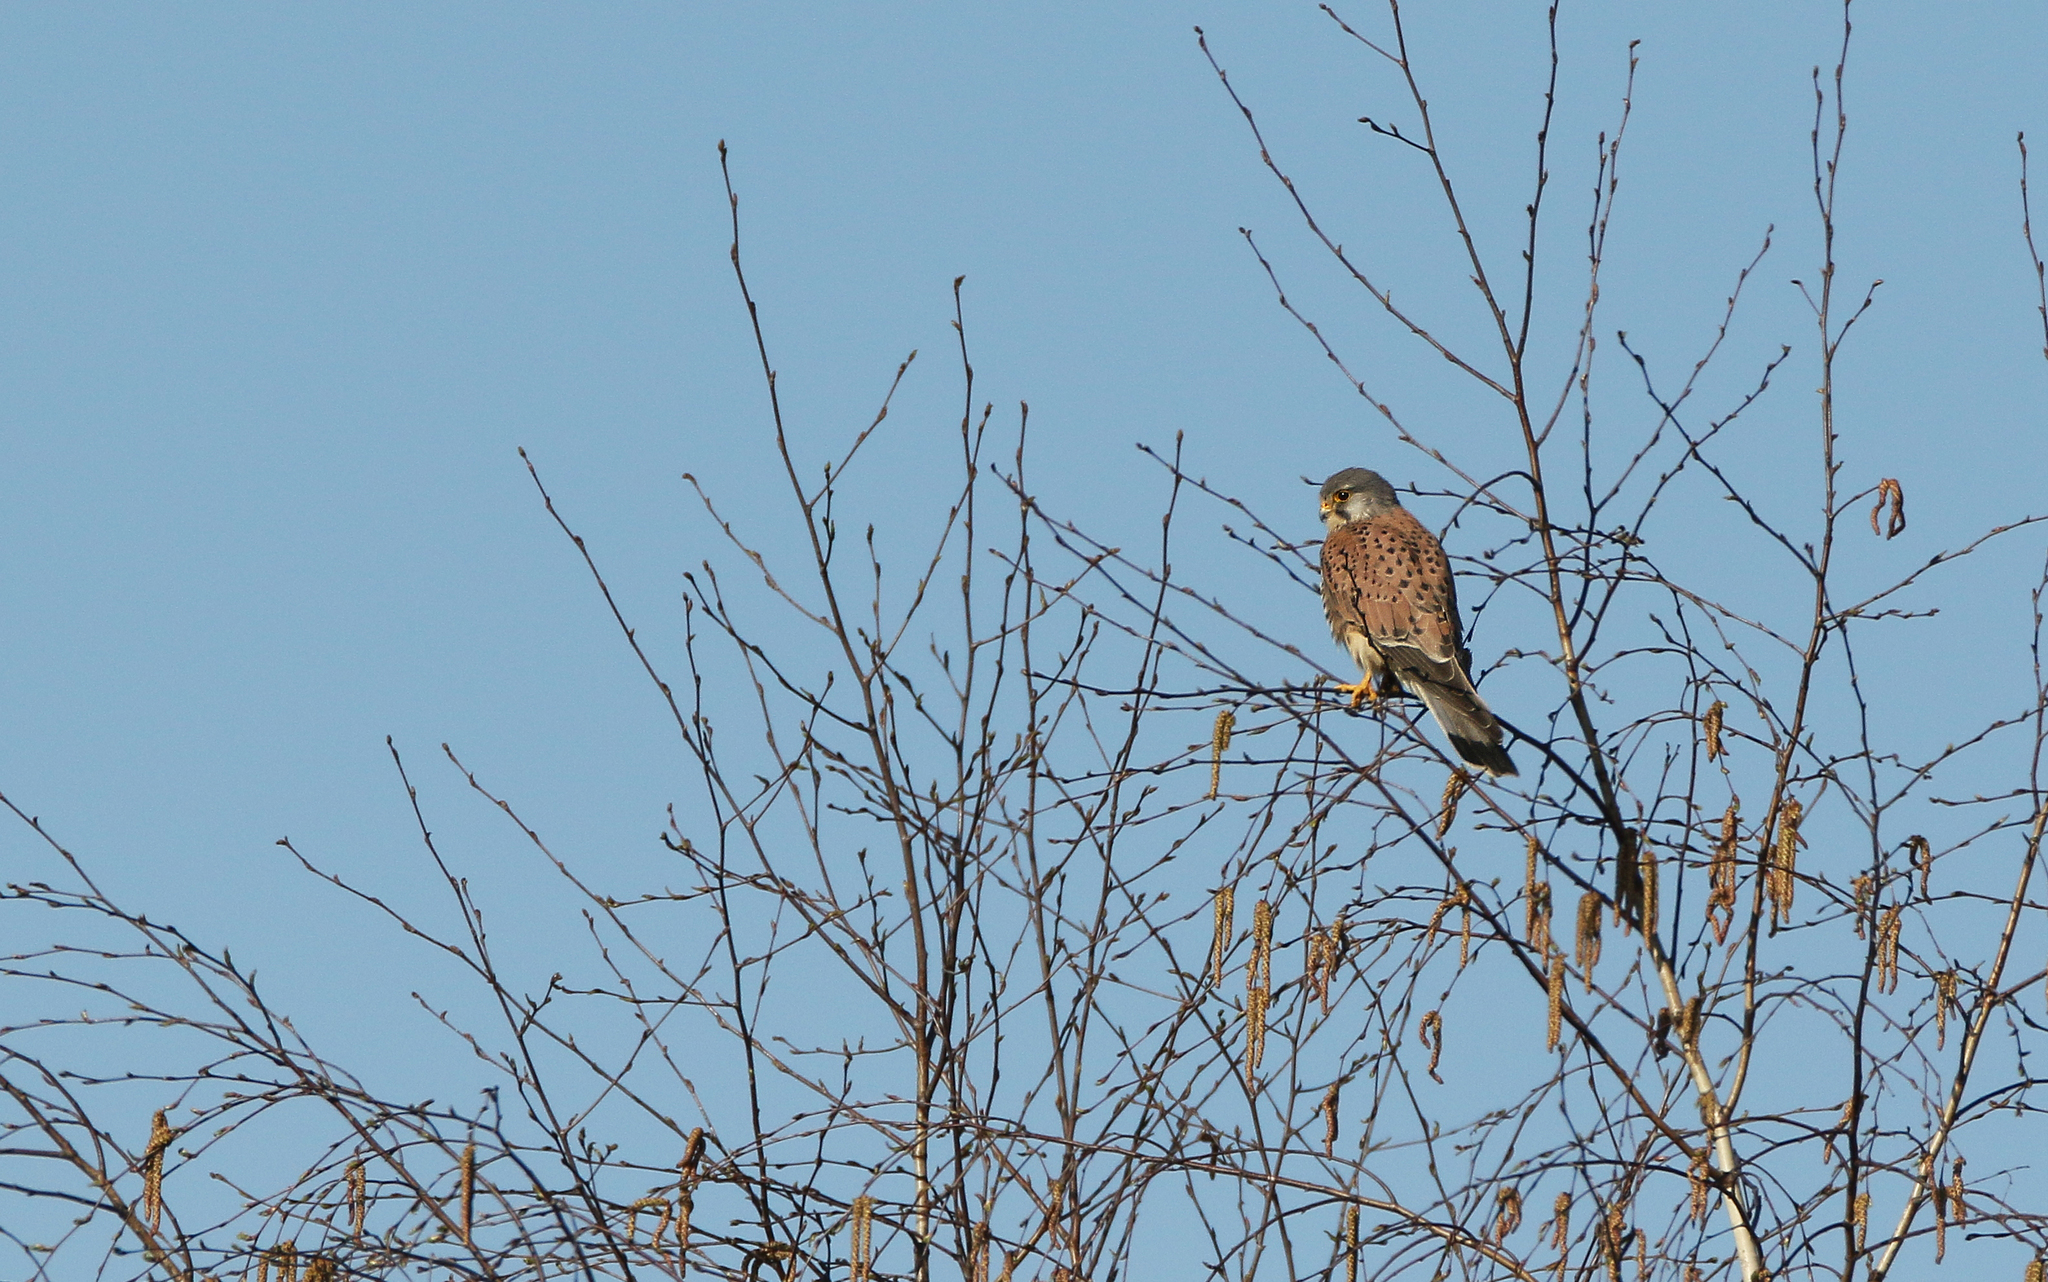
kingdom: Animalia
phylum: Chordata
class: Aves
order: Falconiformes
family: Falconidae
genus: Falco
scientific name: Falco tinnunculus
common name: Common kestrel
